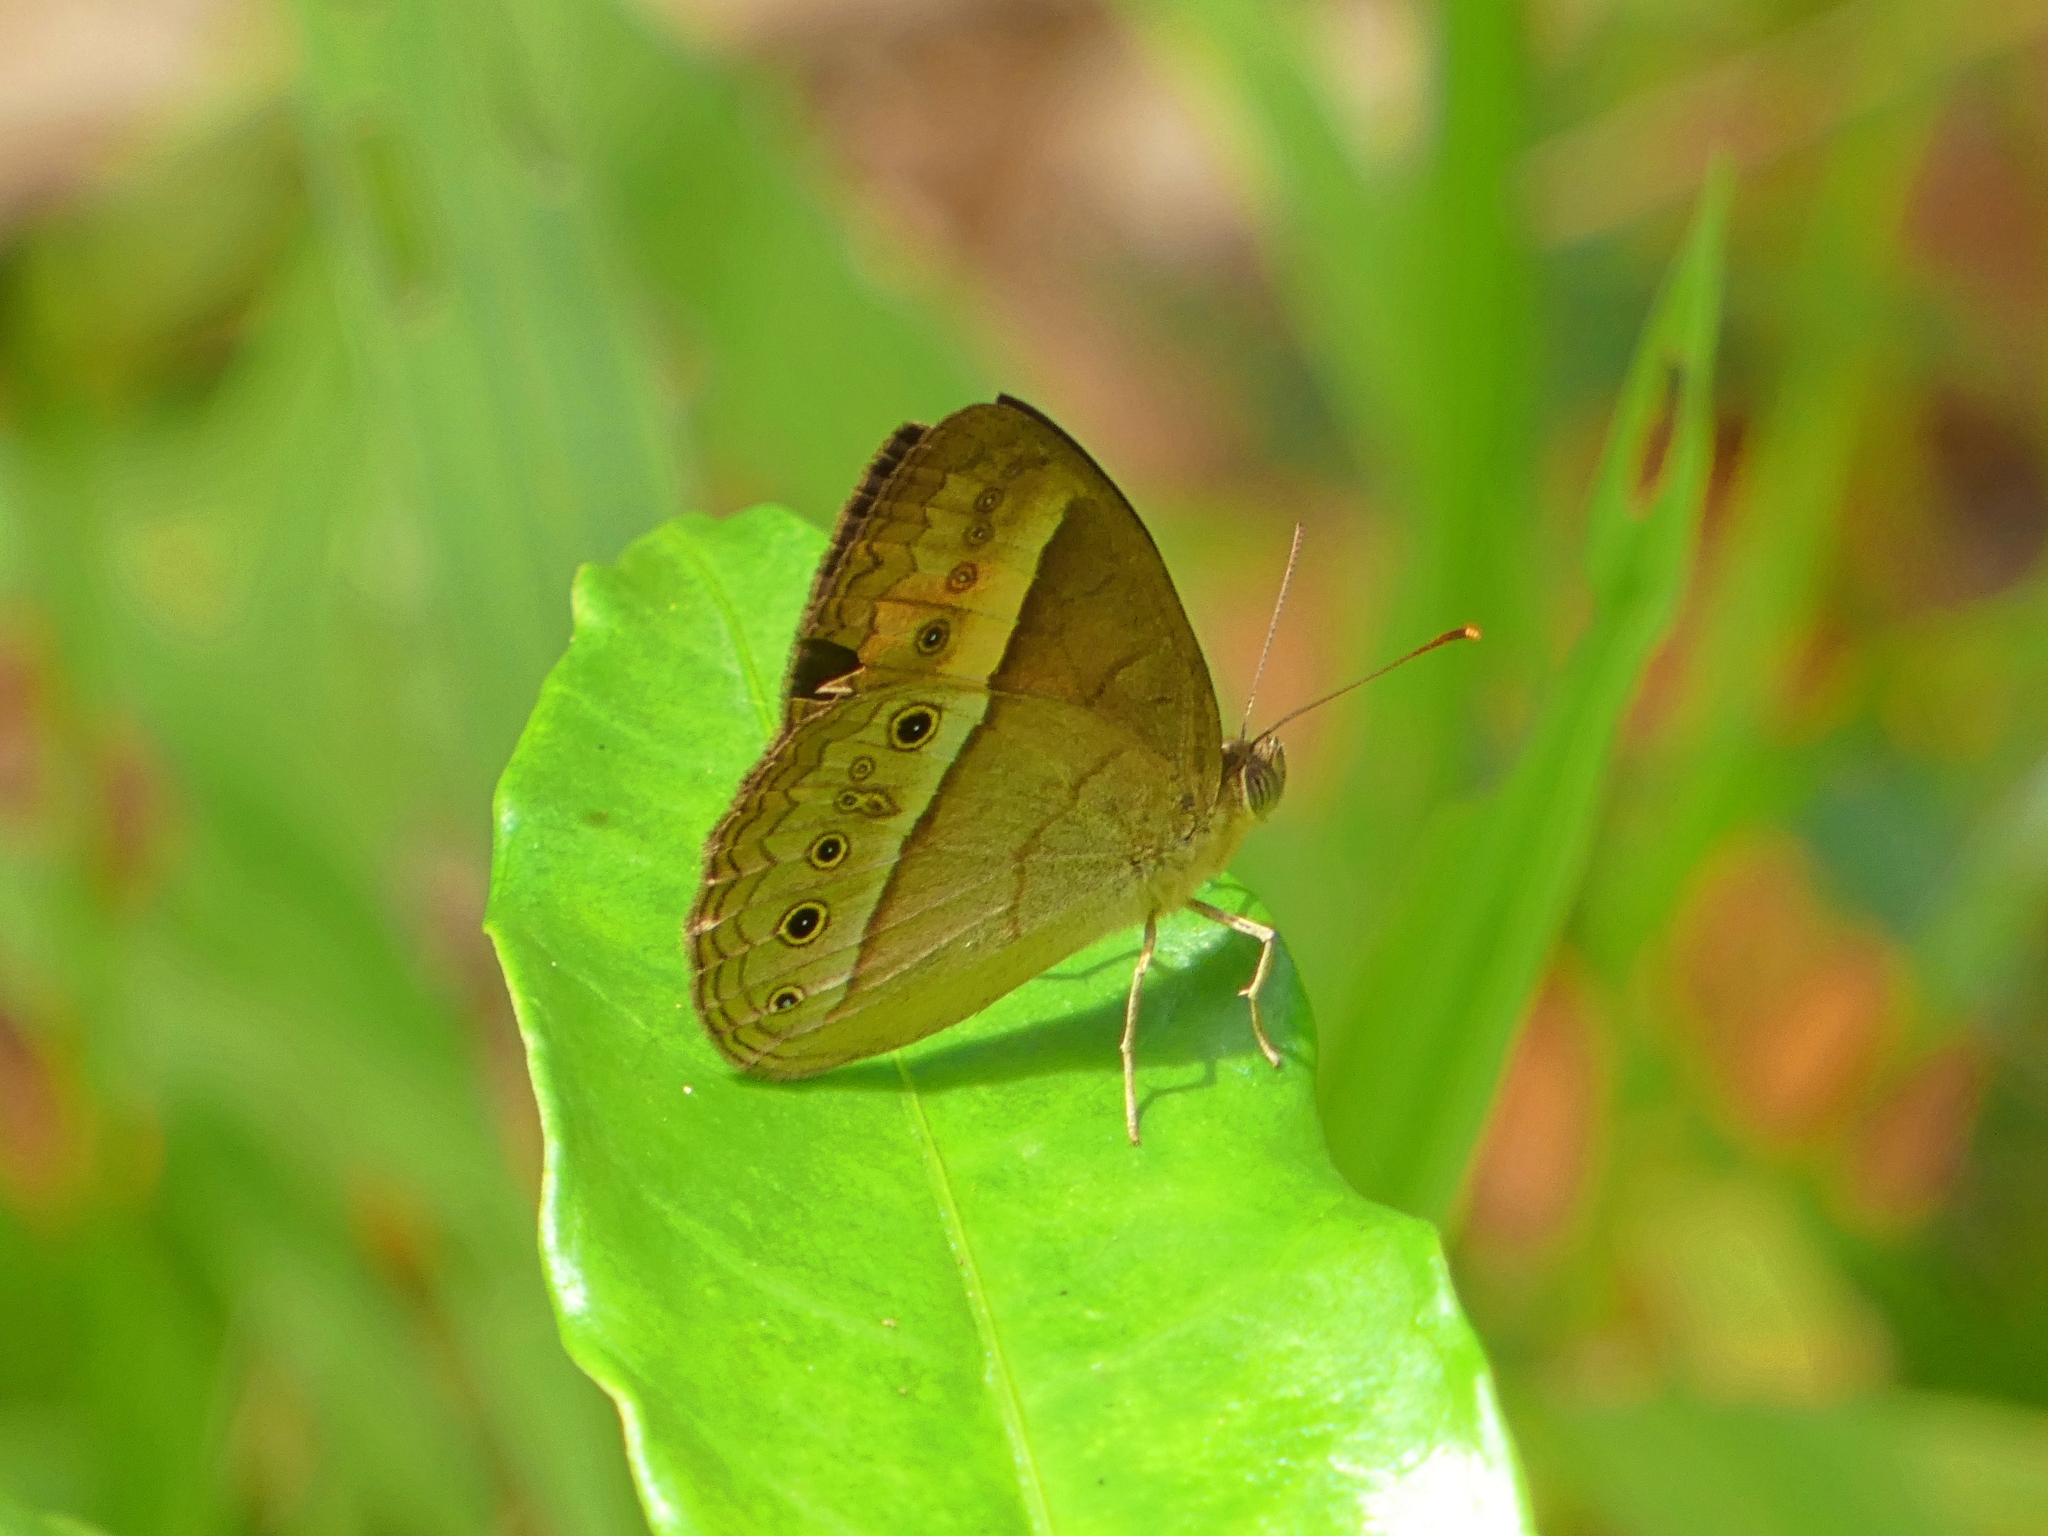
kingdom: Animalia
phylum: Arthropoda
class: Insecta
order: Lepidoptera
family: Nymphalidae
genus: Mycalesis
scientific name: Mycalesis terminus
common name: Orange bushbrown
